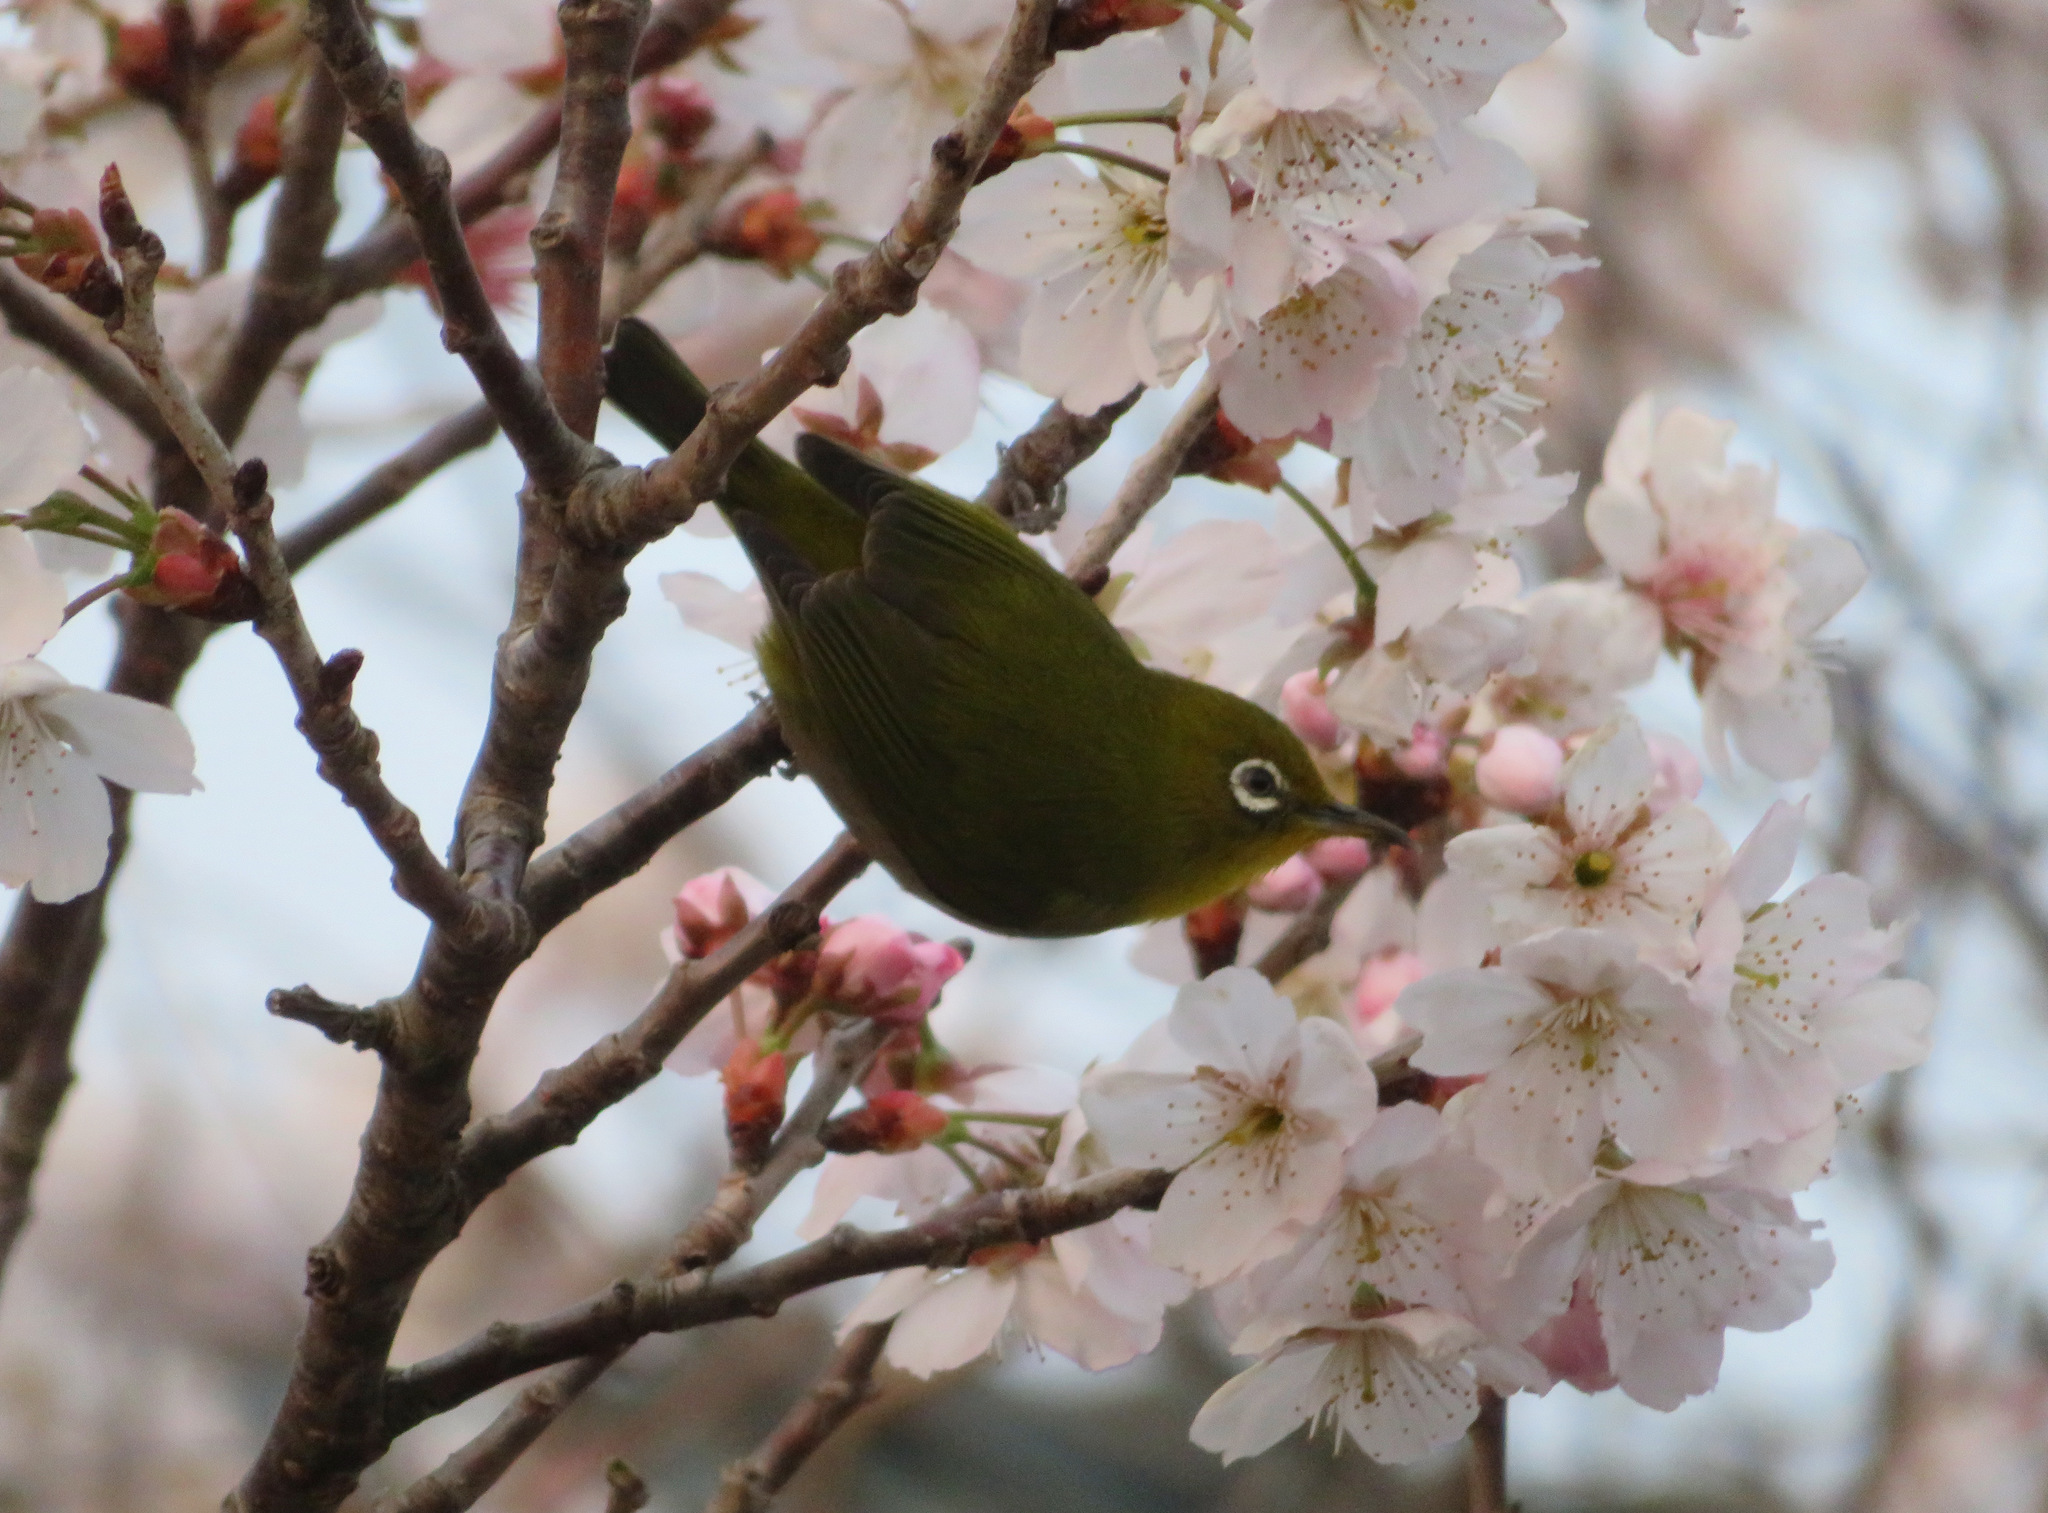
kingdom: Animalia
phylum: Chordata
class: Aves
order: Passeriformes
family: Zosteropidae
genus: Zosterops
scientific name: Zosterops japonicus
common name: Japanese white-eye
